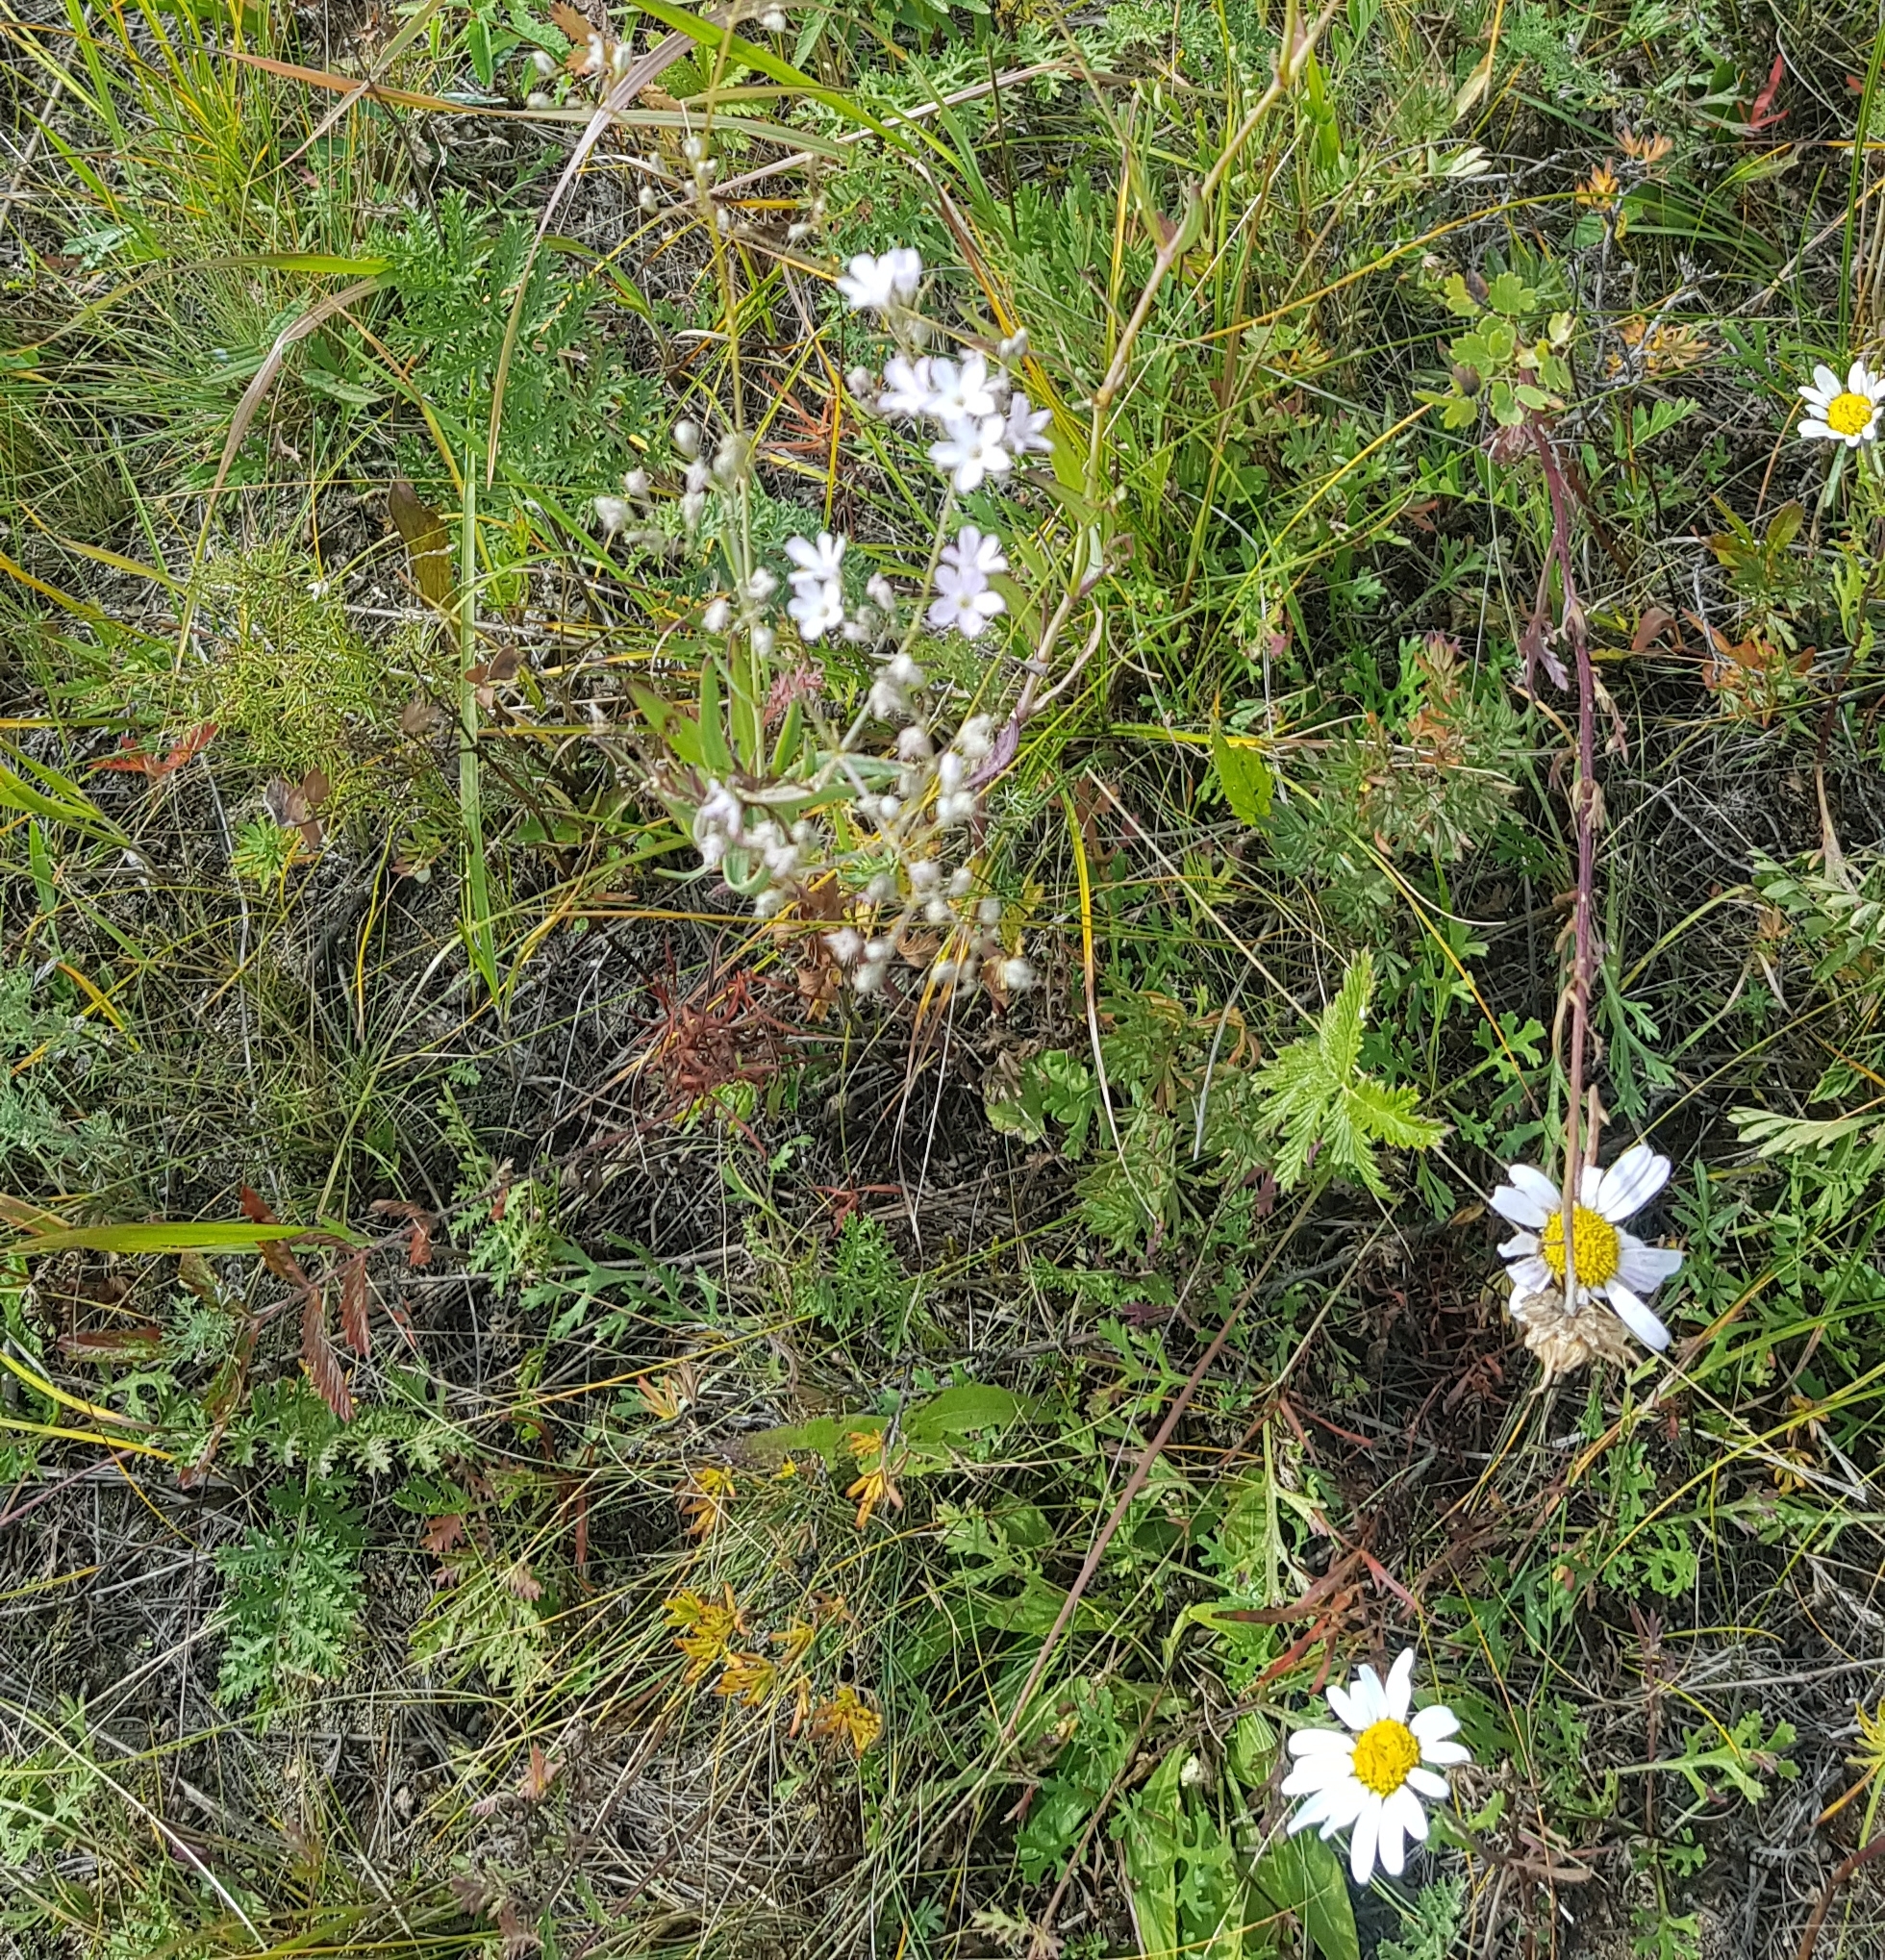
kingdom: Plantae
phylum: Tracheophyta
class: Magnoliopsida
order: Asterales
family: Asteraceae
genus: Chrysanthemum
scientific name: Chrysanthemum zawadzkii
